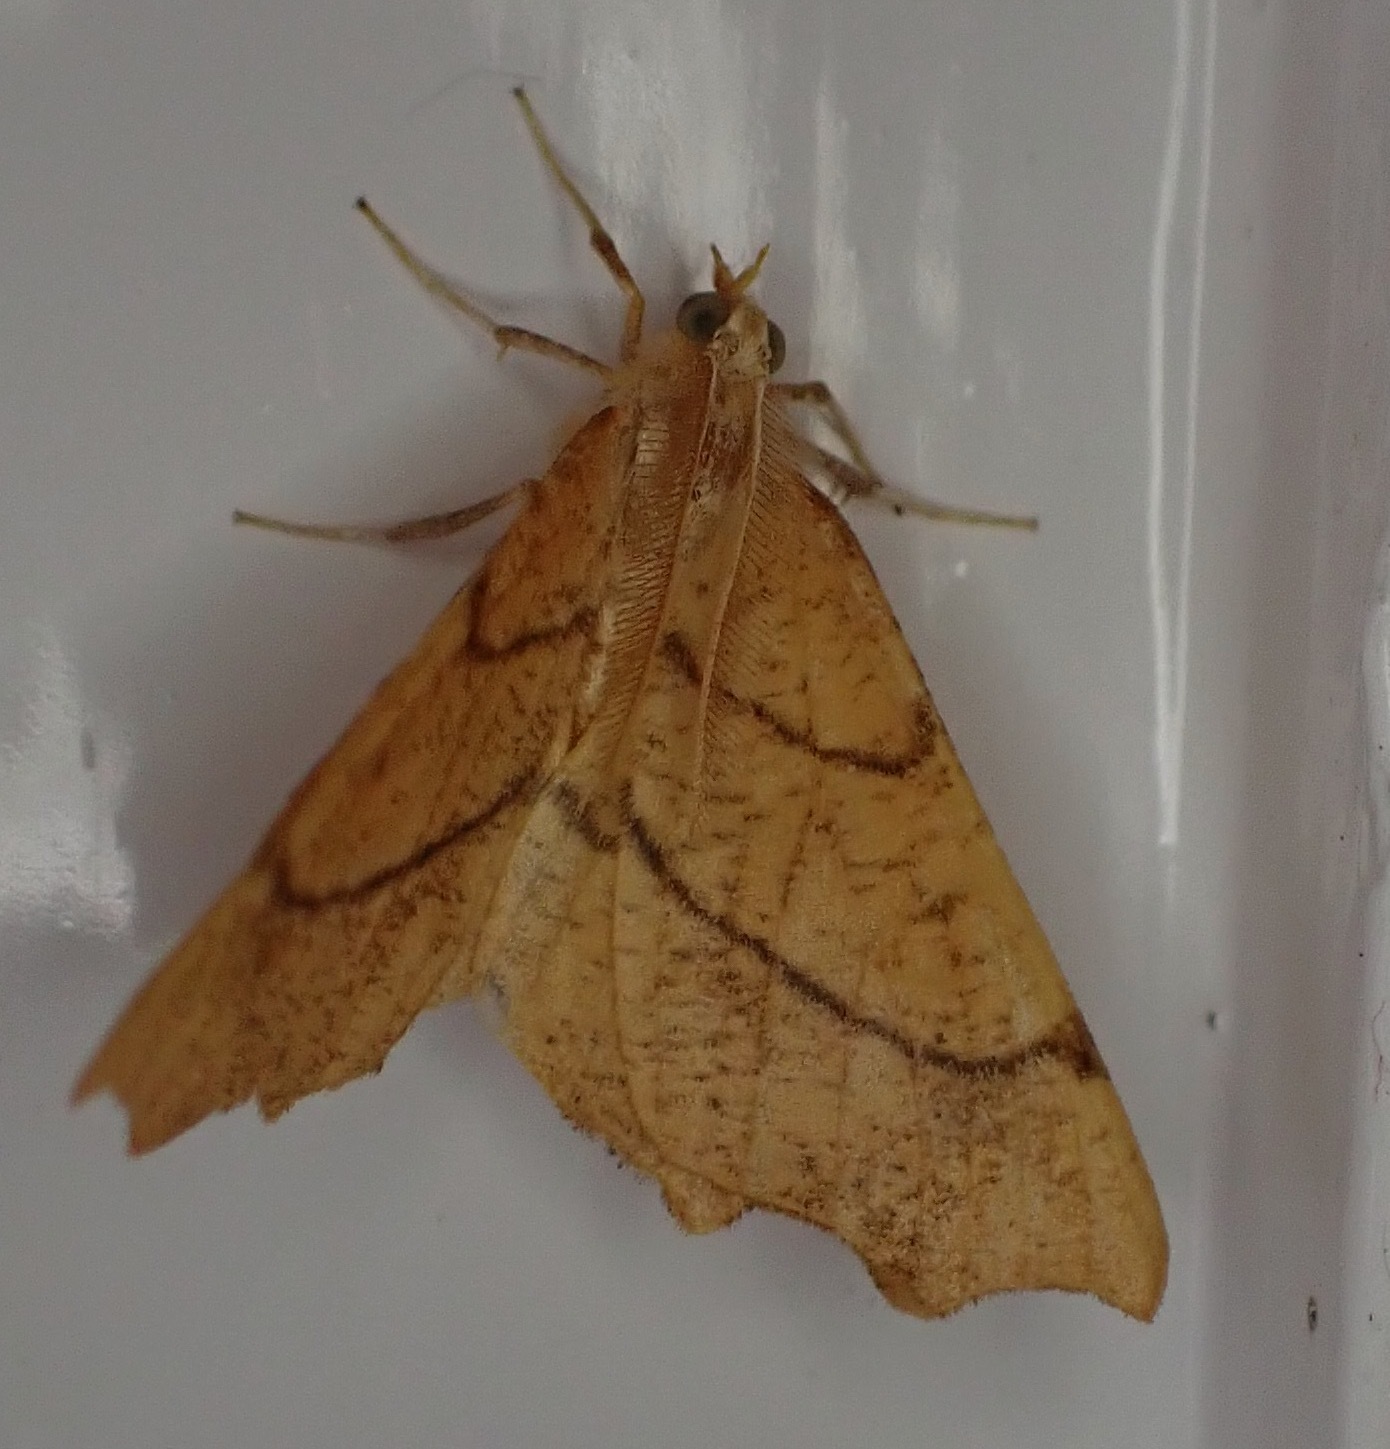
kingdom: Animalia
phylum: Arthropoda
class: Insecta
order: Lepidoptera
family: Geometridae
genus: Ennomos
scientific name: Ennomos quercinaria
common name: August thorn
